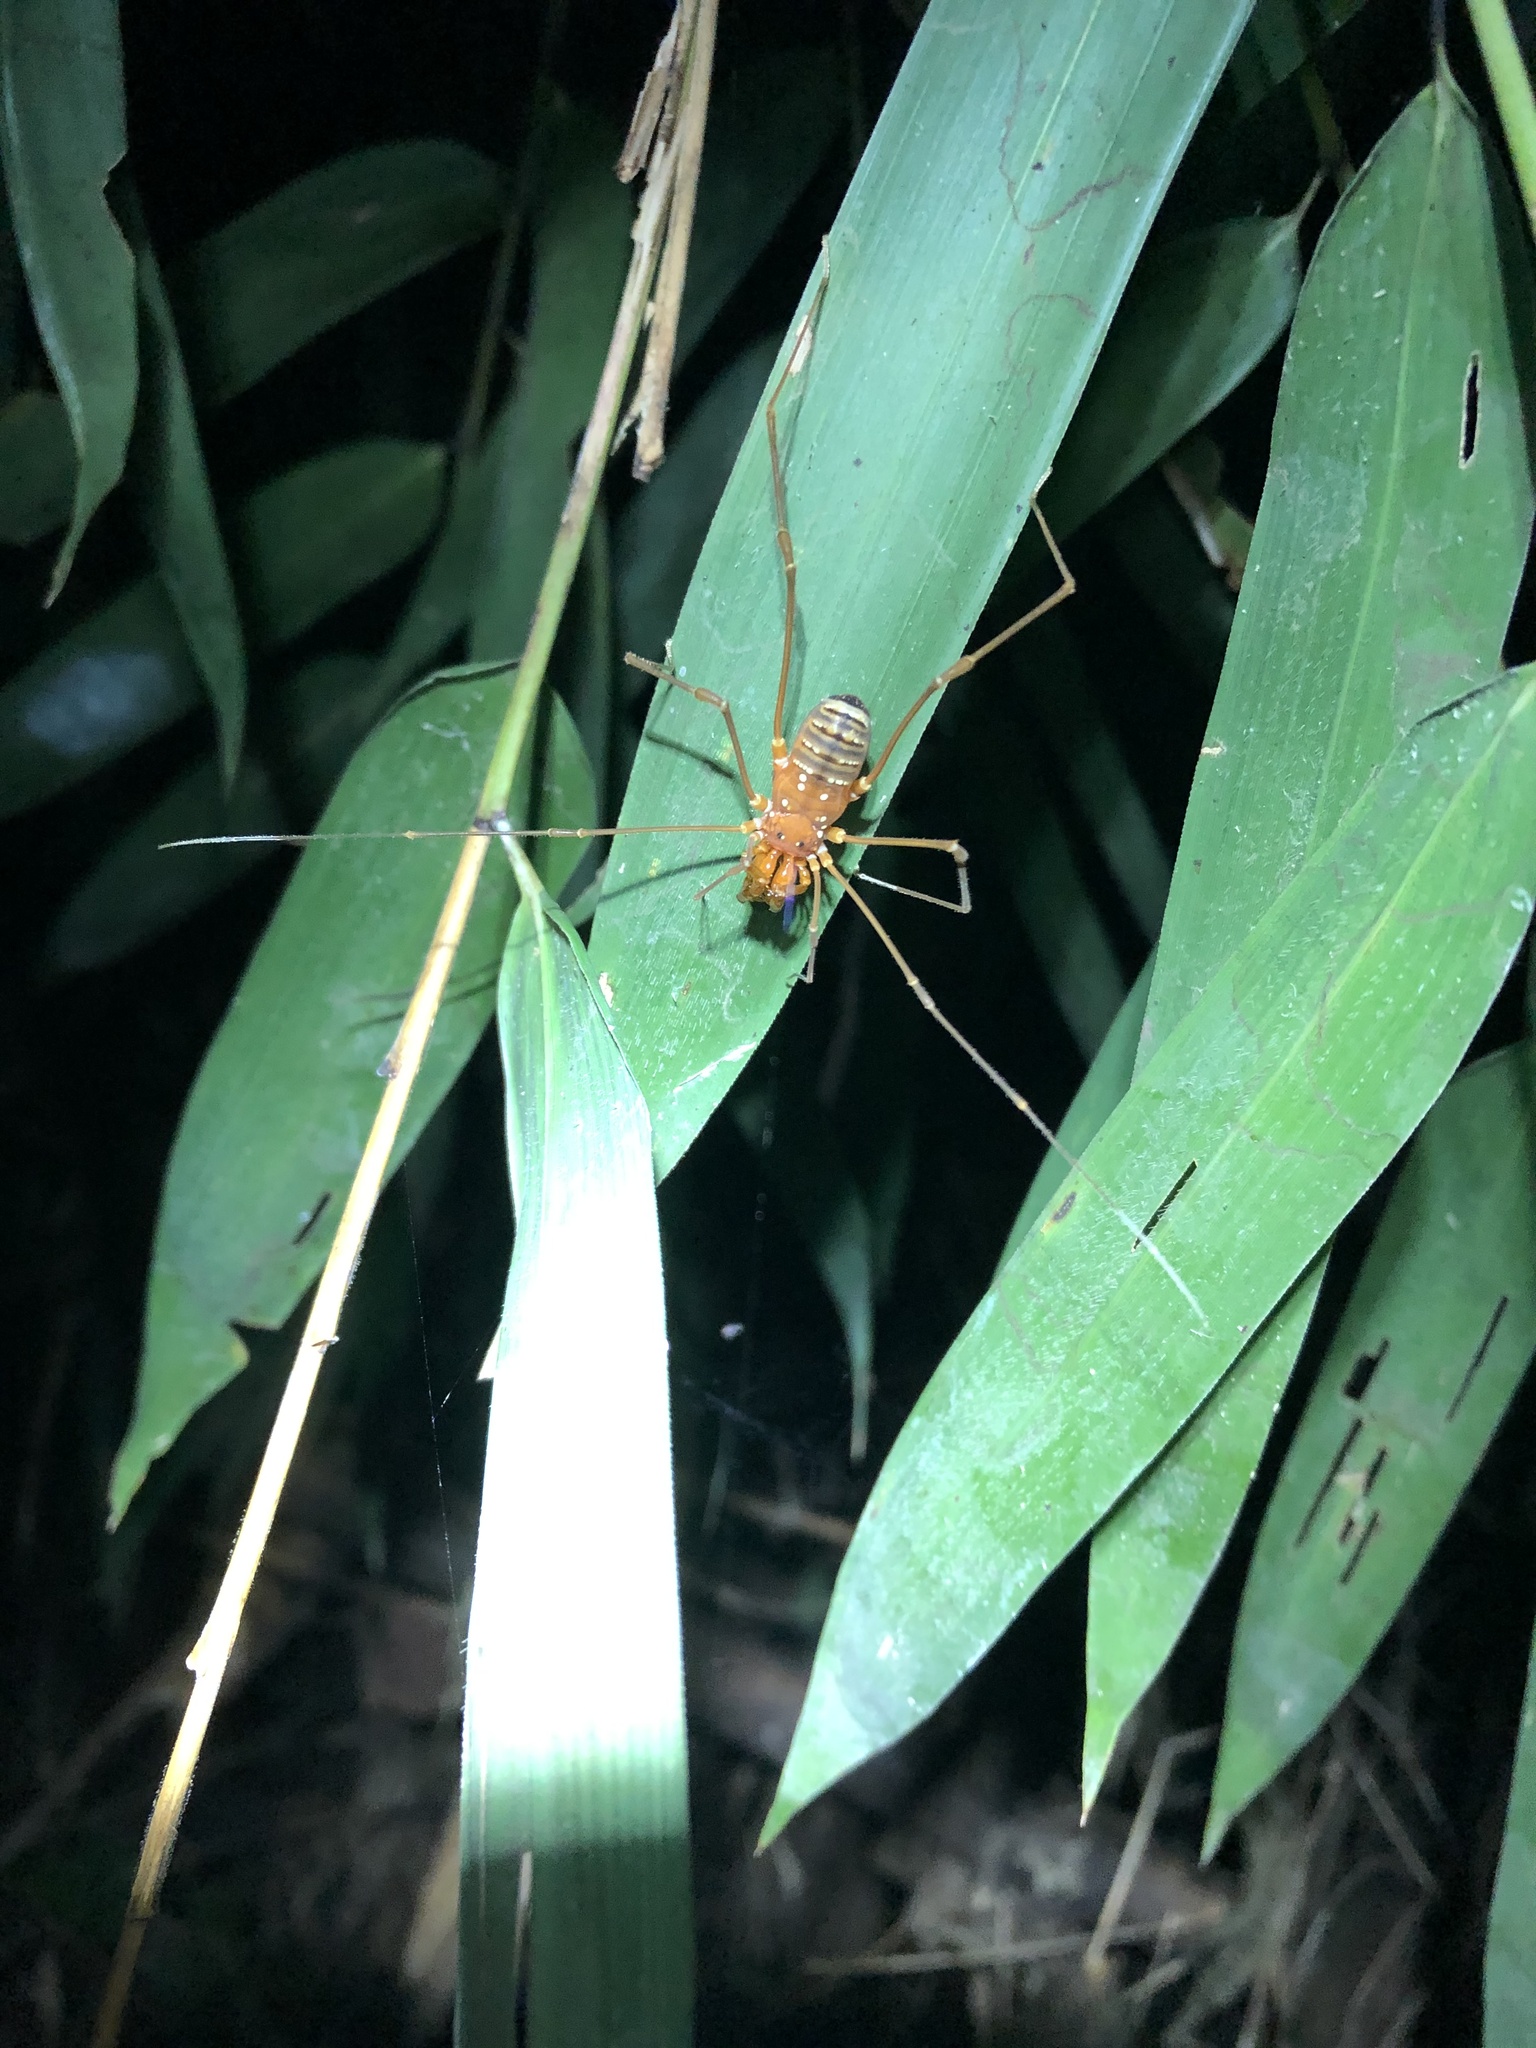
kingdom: Animalia
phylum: Arthropoda
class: Arachnida
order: Opiliones
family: Cranaidae
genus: Iquitosa
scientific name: Iquitosa poecilis
